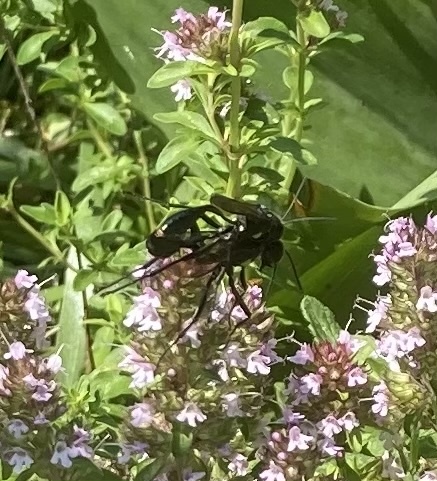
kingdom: Animalia
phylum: Arthropoda
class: Insecta
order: Hymenoptera
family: Sphecidae
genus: Eremnophila
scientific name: Eremnophila aureonotata
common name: Gold-marked thread-waisted wasp
